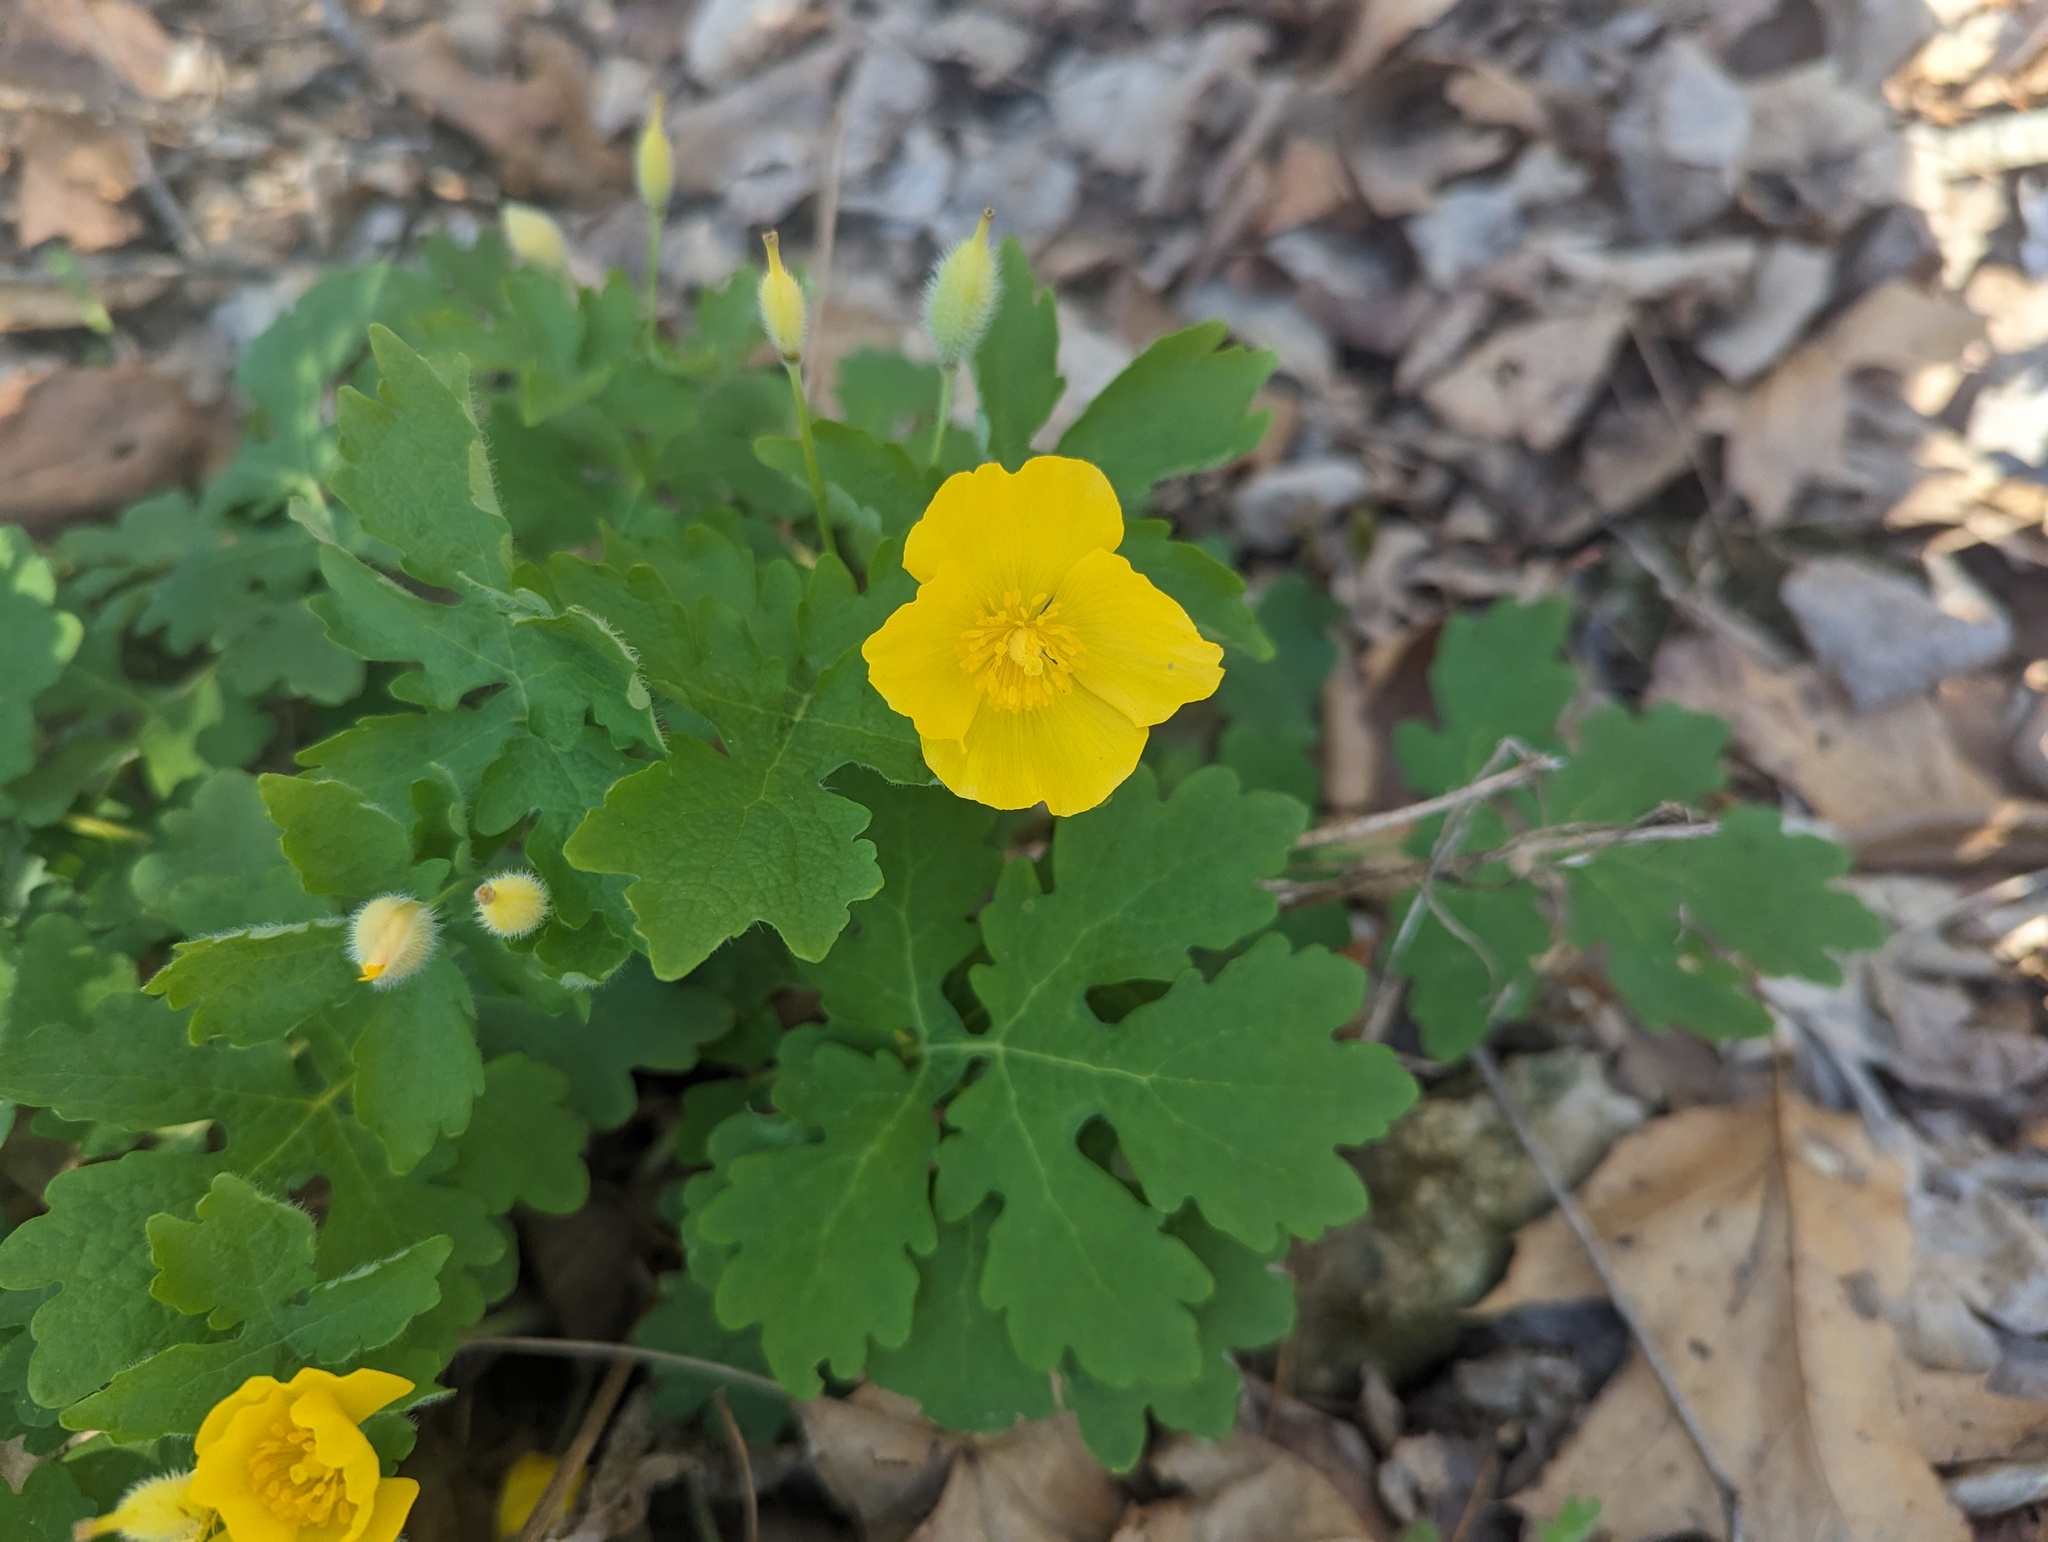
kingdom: Plantae
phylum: Tracheophyta
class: Magnoliopsida
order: Ranunculales
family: Papaveraceae
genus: Stylophorum
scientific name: Stylophorum diphyllum
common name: Celandine poppy
